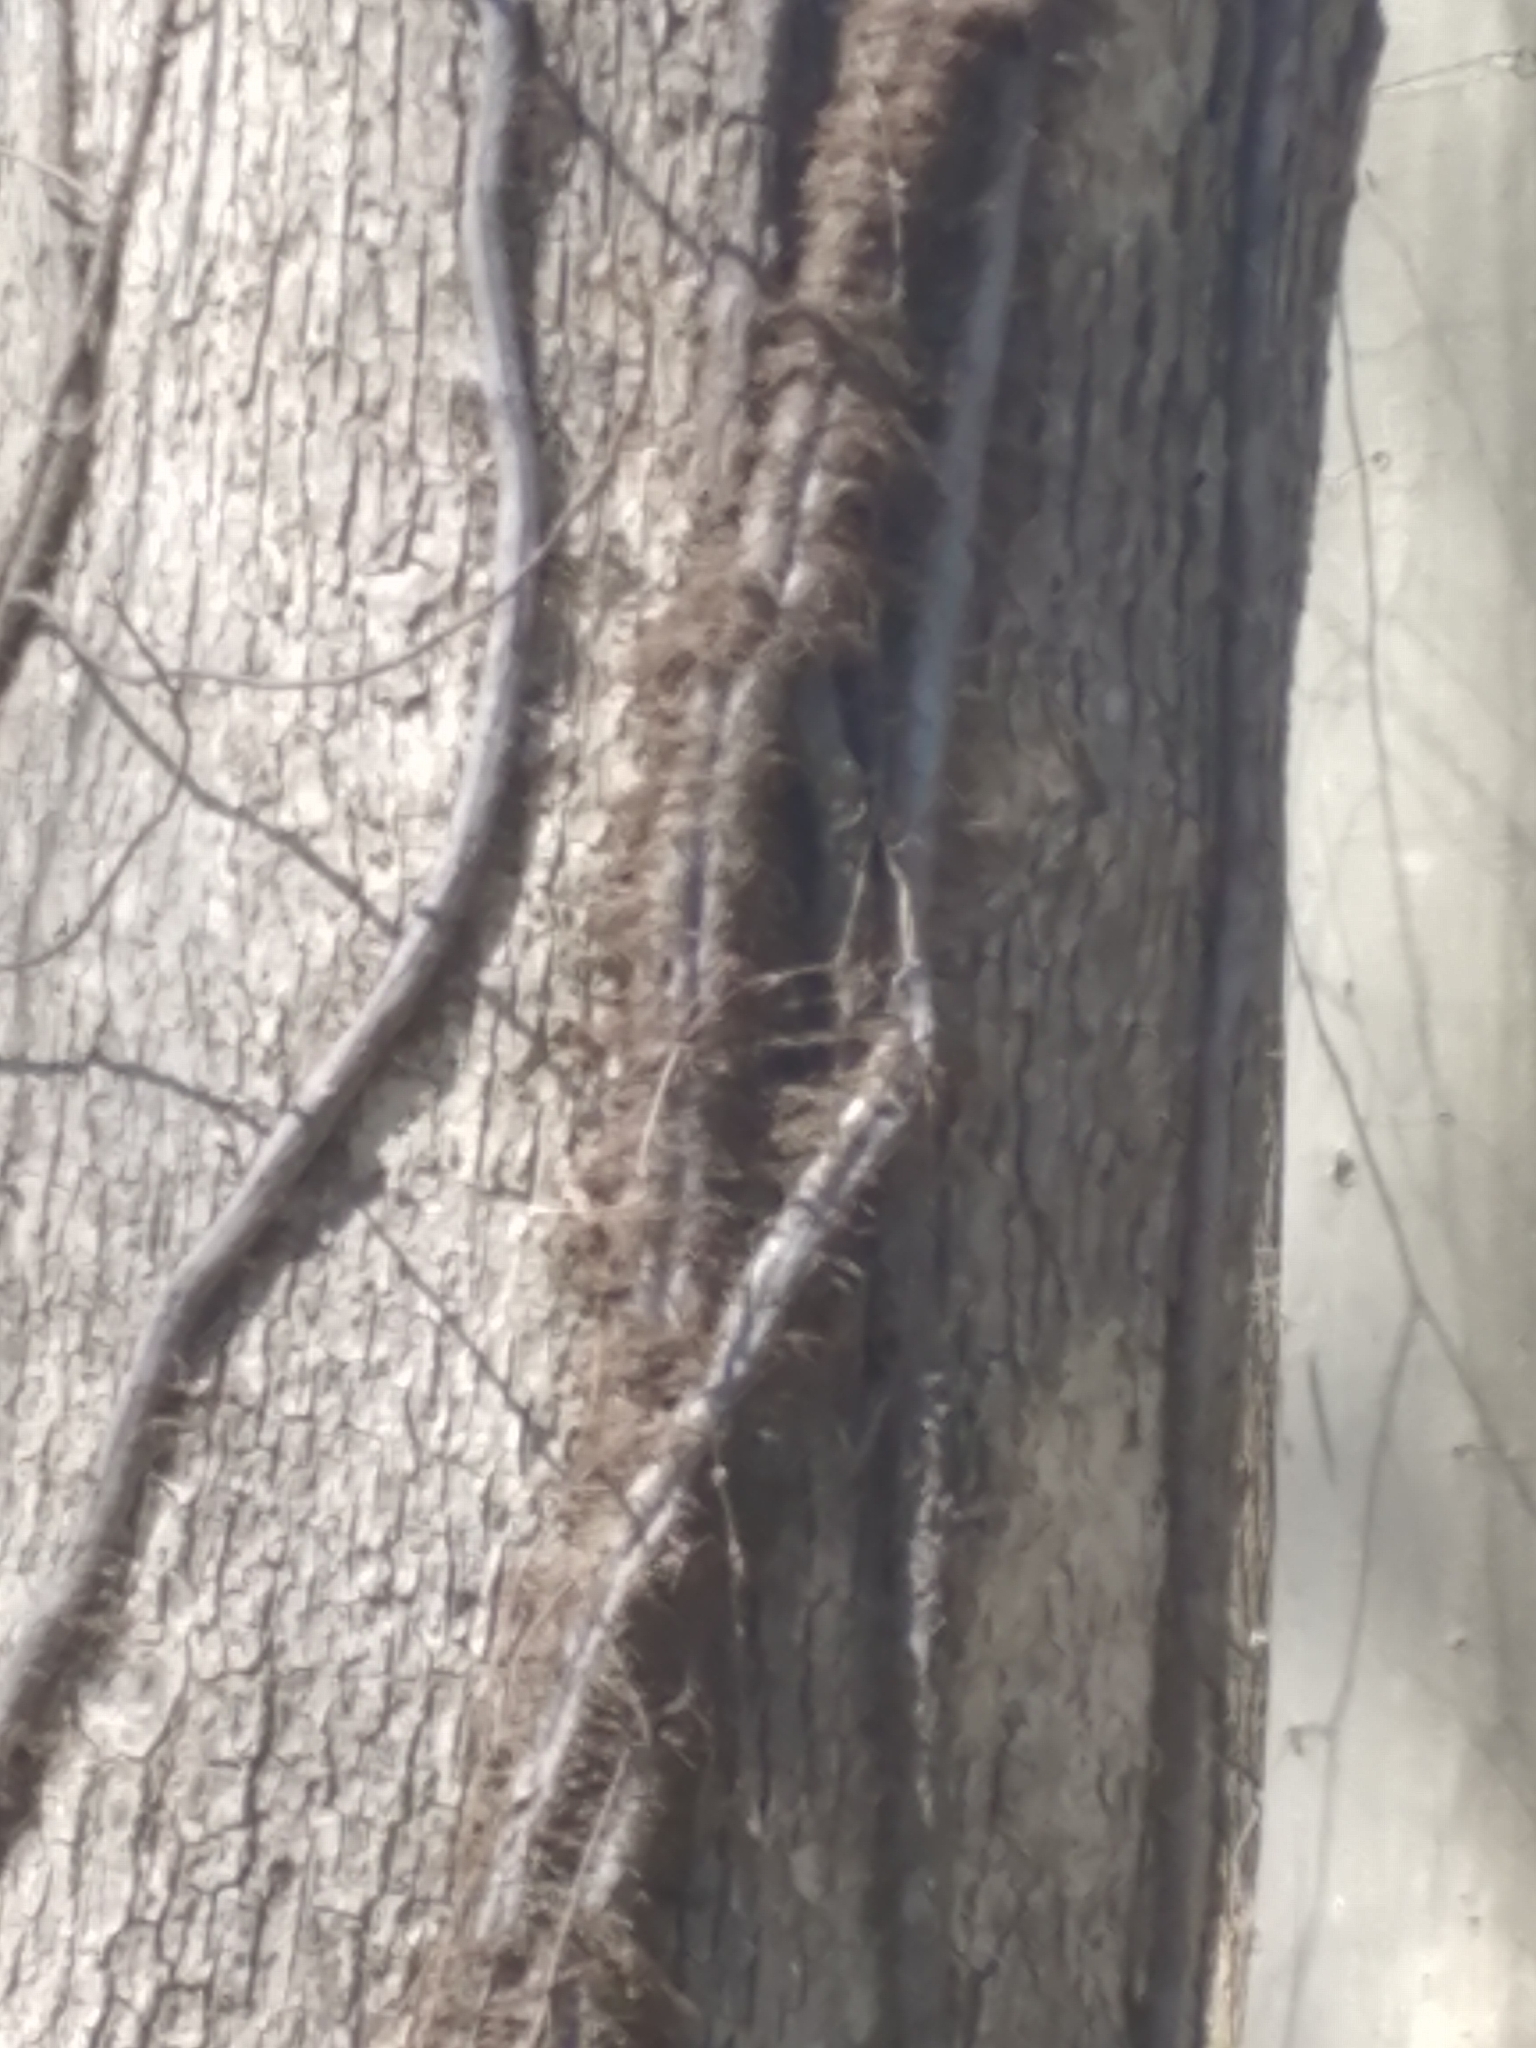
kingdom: Plantae
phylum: Tracheophyta
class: Magnoliopsida
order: Sapindales
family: Anacardiaceae
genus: Toxicodendron
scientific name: Toxicodendron radicans
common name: Poison ivy
